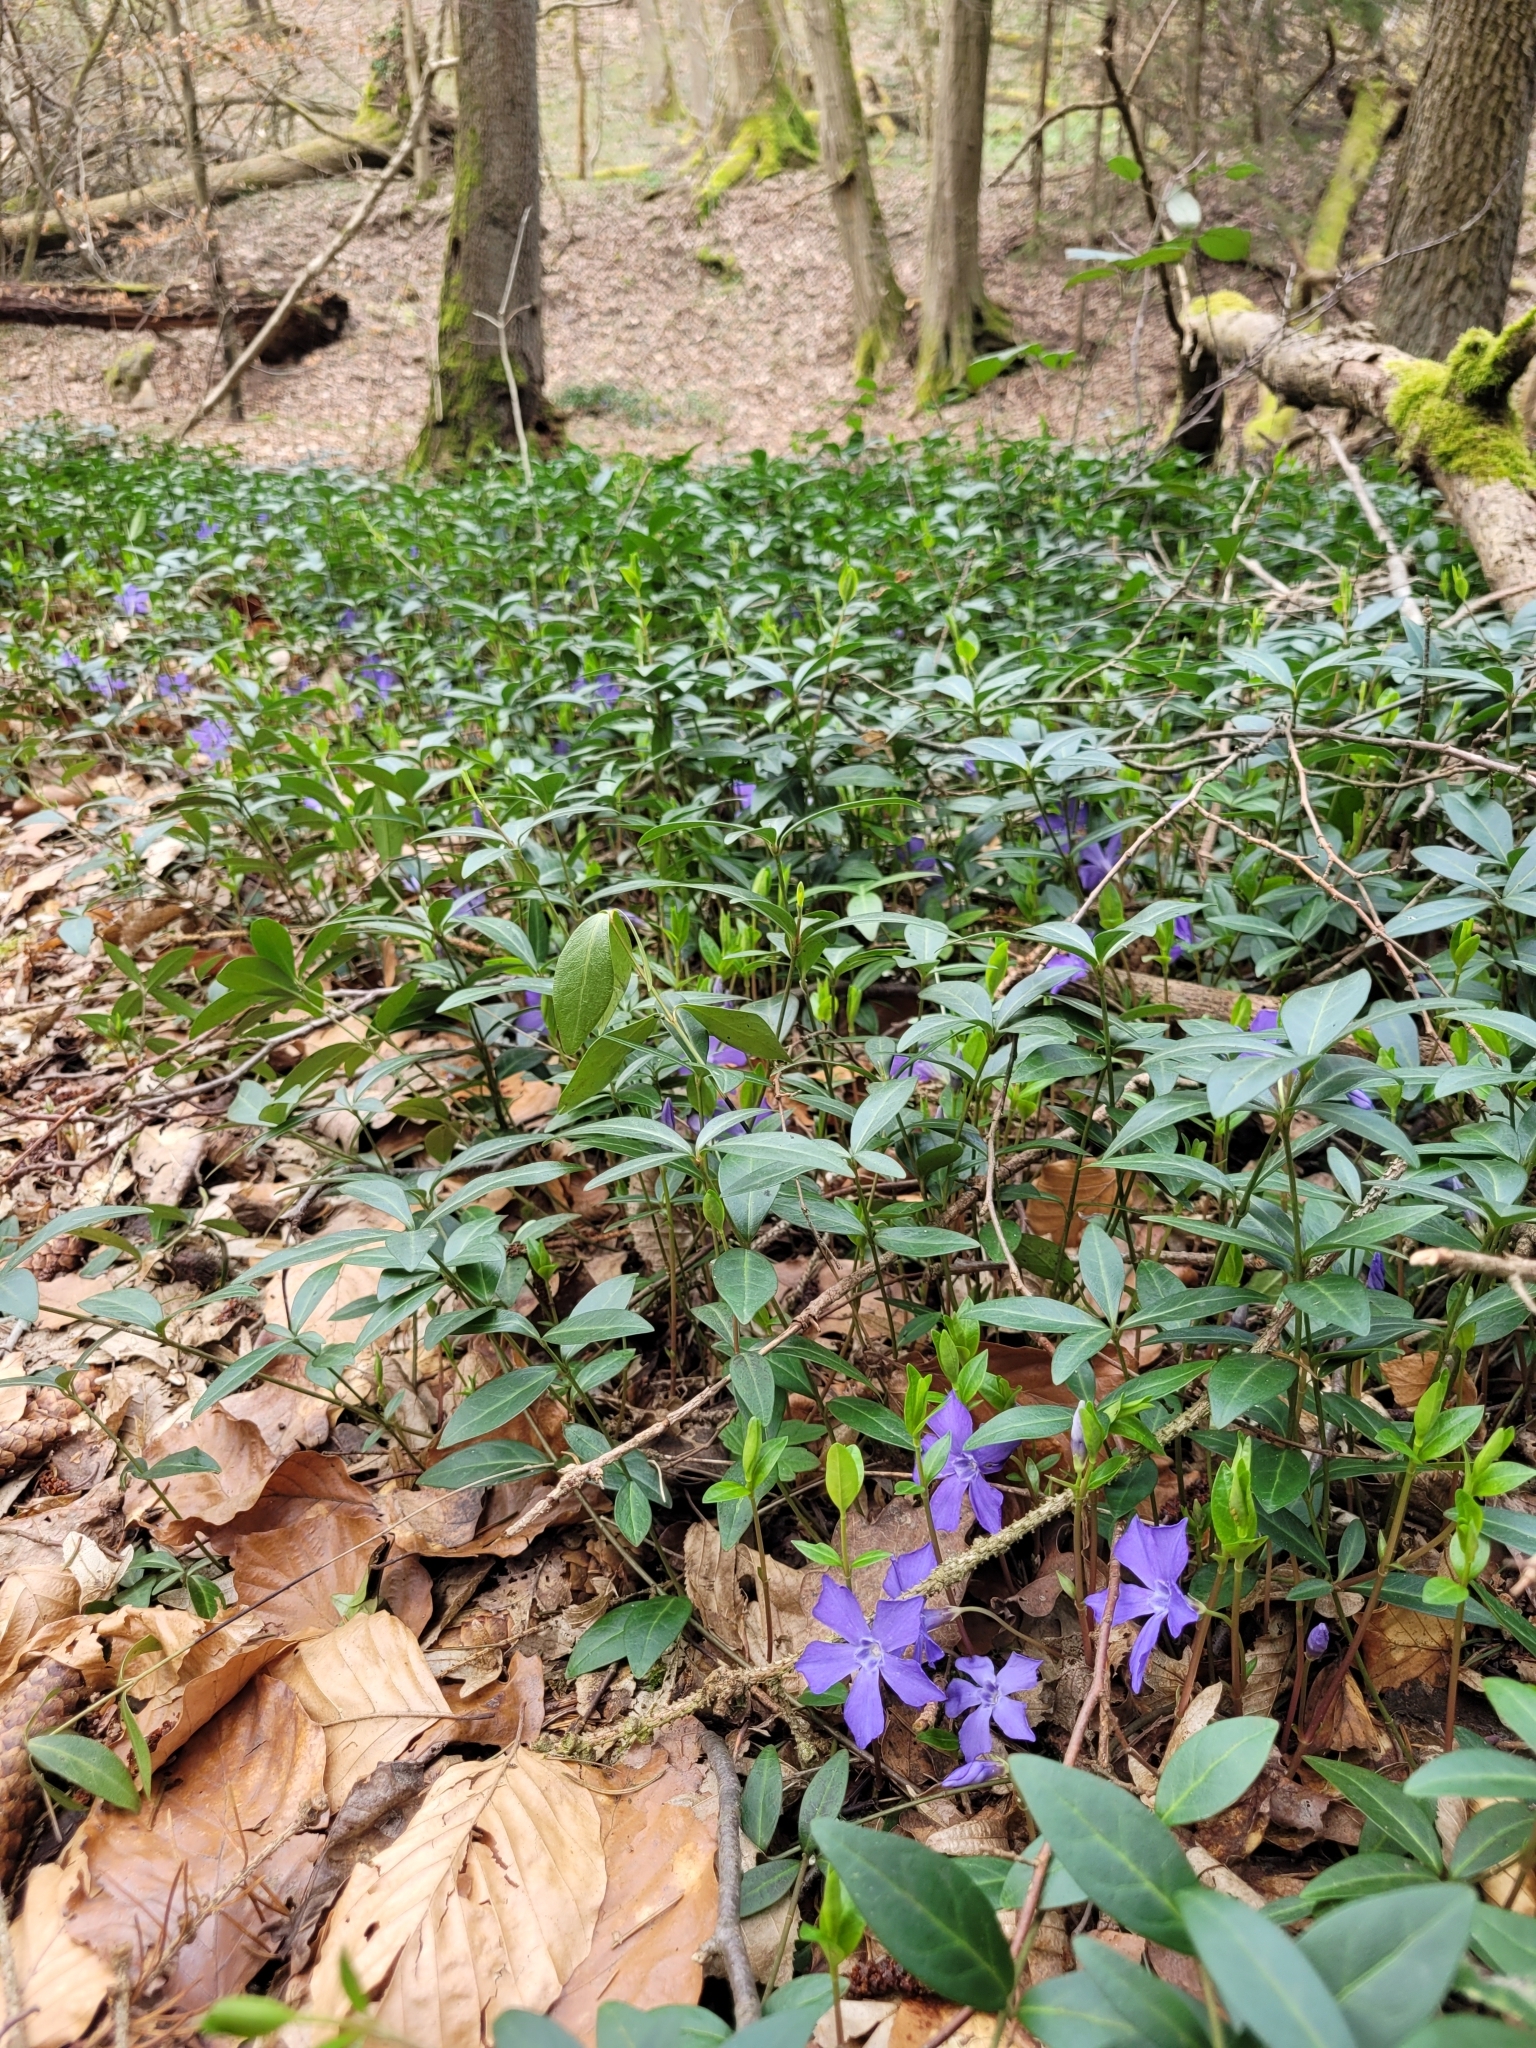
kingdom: Plantae
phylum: Tracheophyta
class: Magnoliopsida
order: Gentianales
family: Apocynaceae
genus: Vinca
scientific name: Vinca minor
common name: Lesser periwinkle
